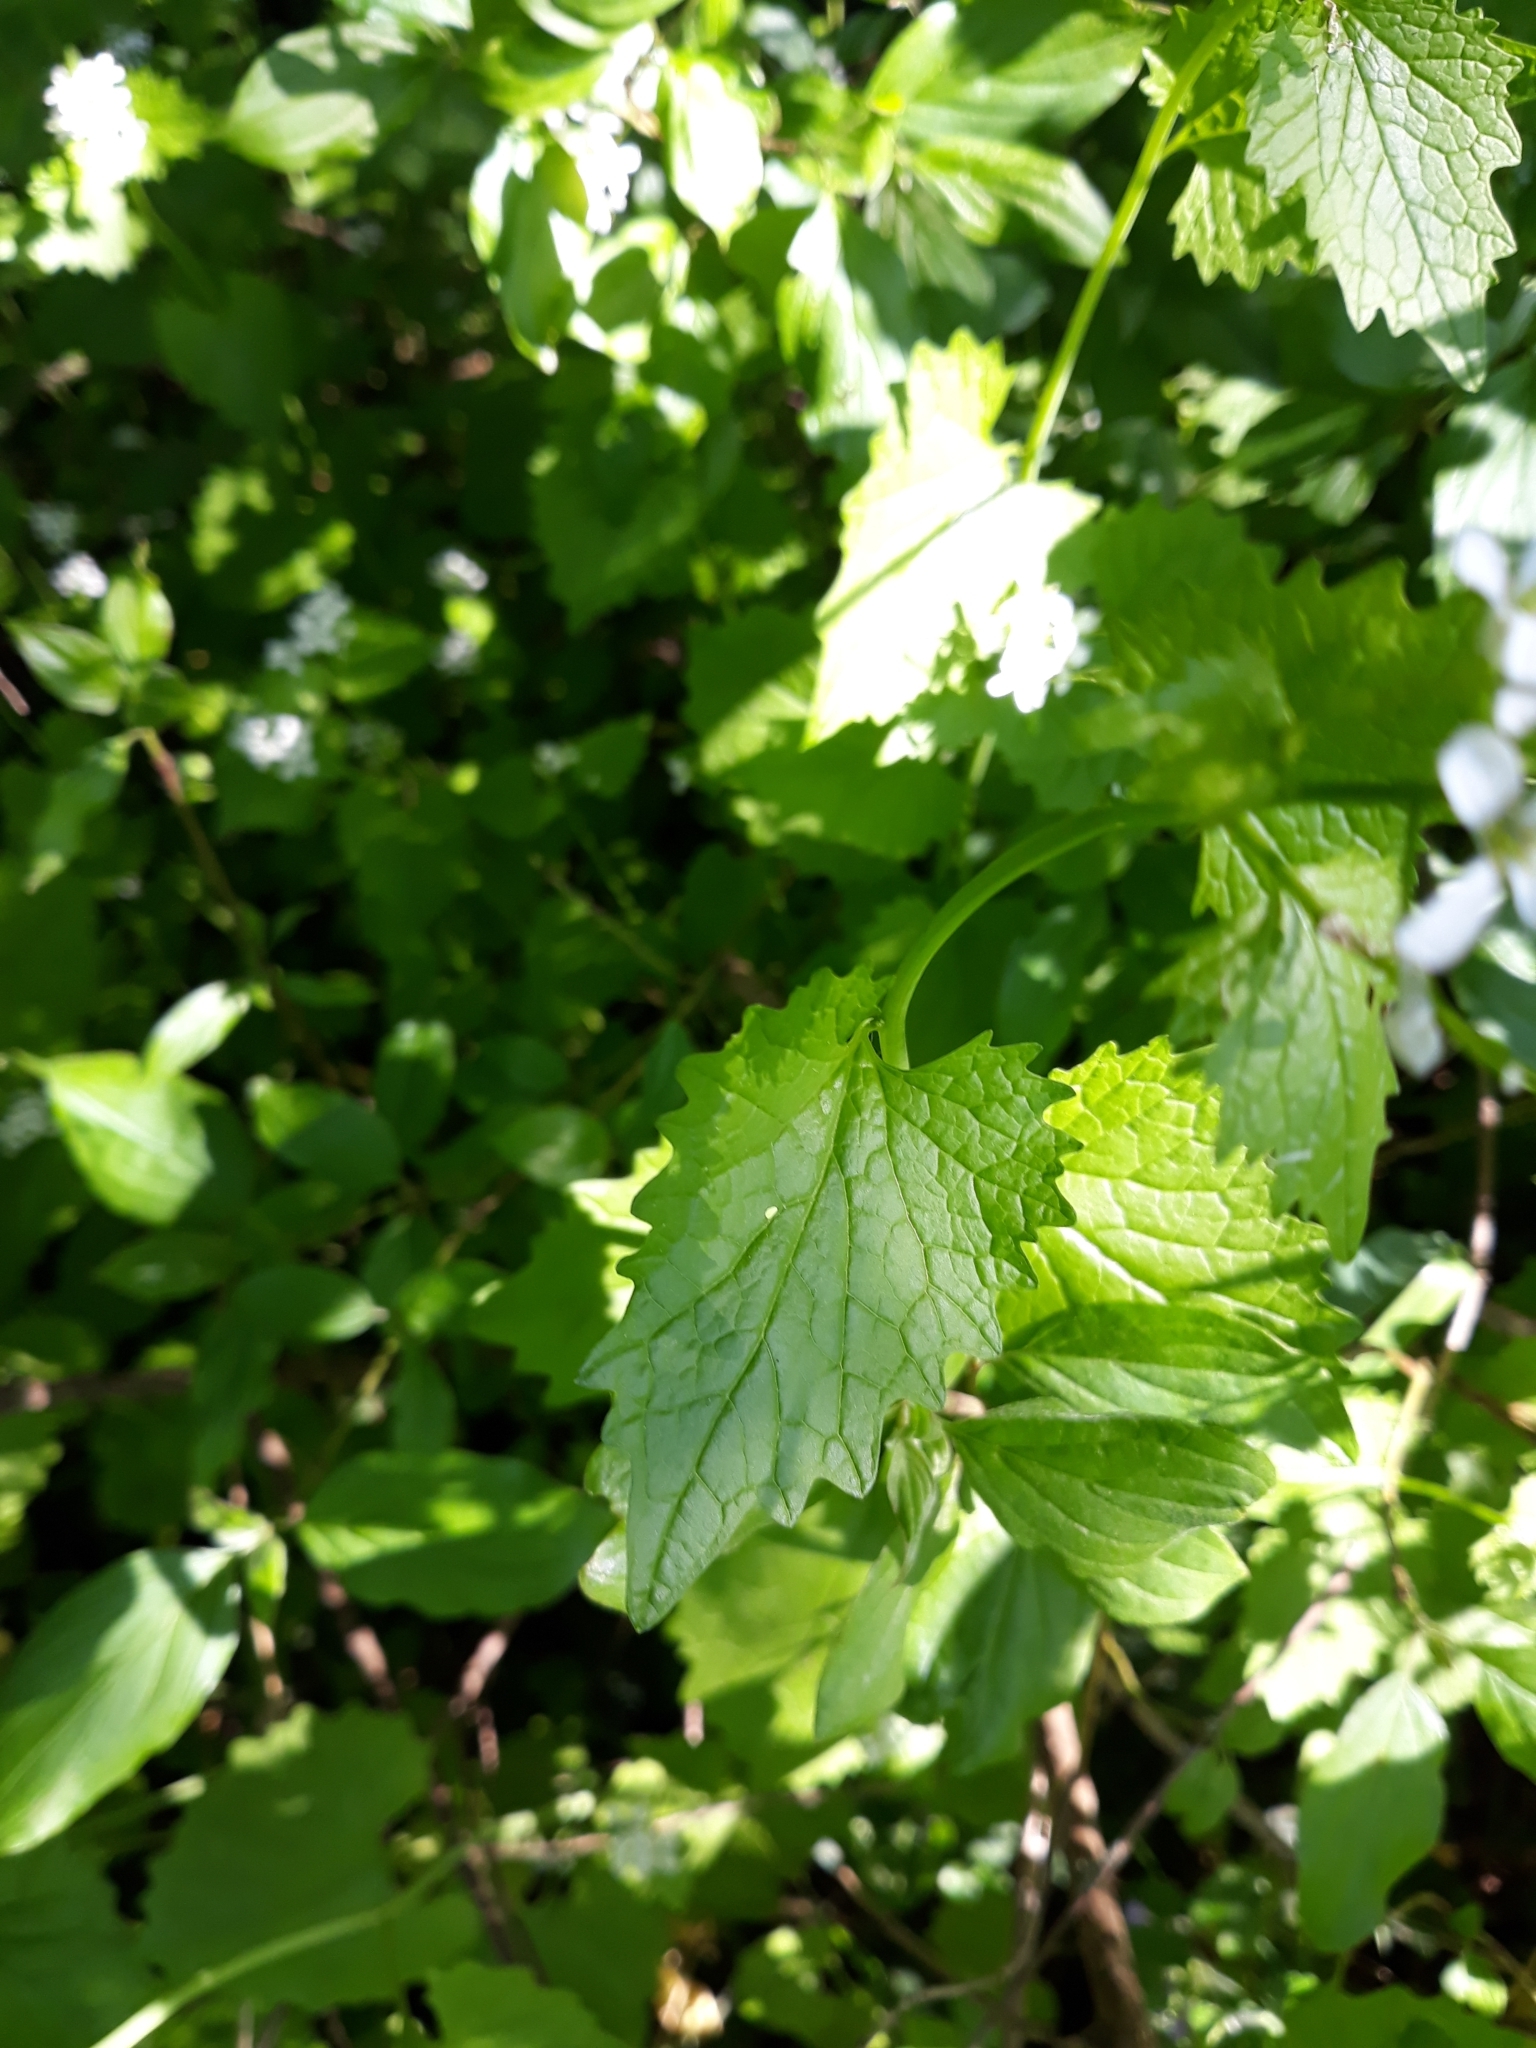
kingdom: Plantae
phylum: Tracheophyta
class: Magnoliopsida
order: Brassicales
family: Brassicaceae
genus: Alliaria
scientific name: Alliaria petiolata
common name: Garlic mustard
